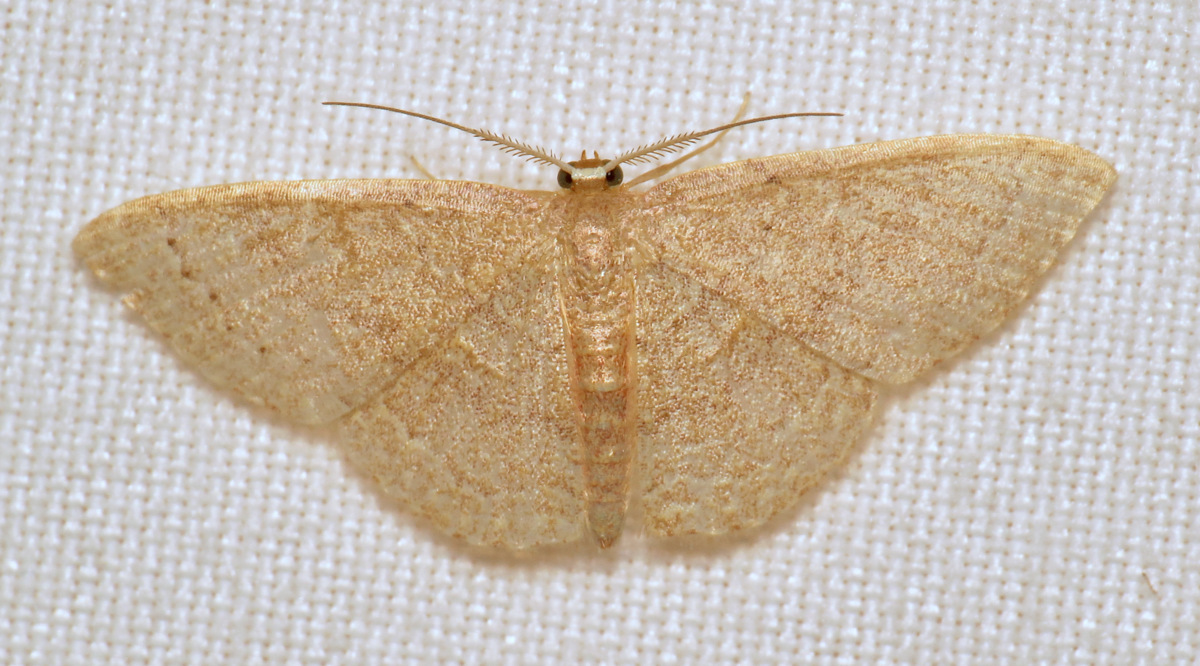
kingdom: Animalia
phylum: Arthropoda
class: Insecta
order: Lepidoptera
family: Geometridae
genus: Pleuroprucha
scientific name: Pleuroprucha insulsaria
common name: Common tan wave
